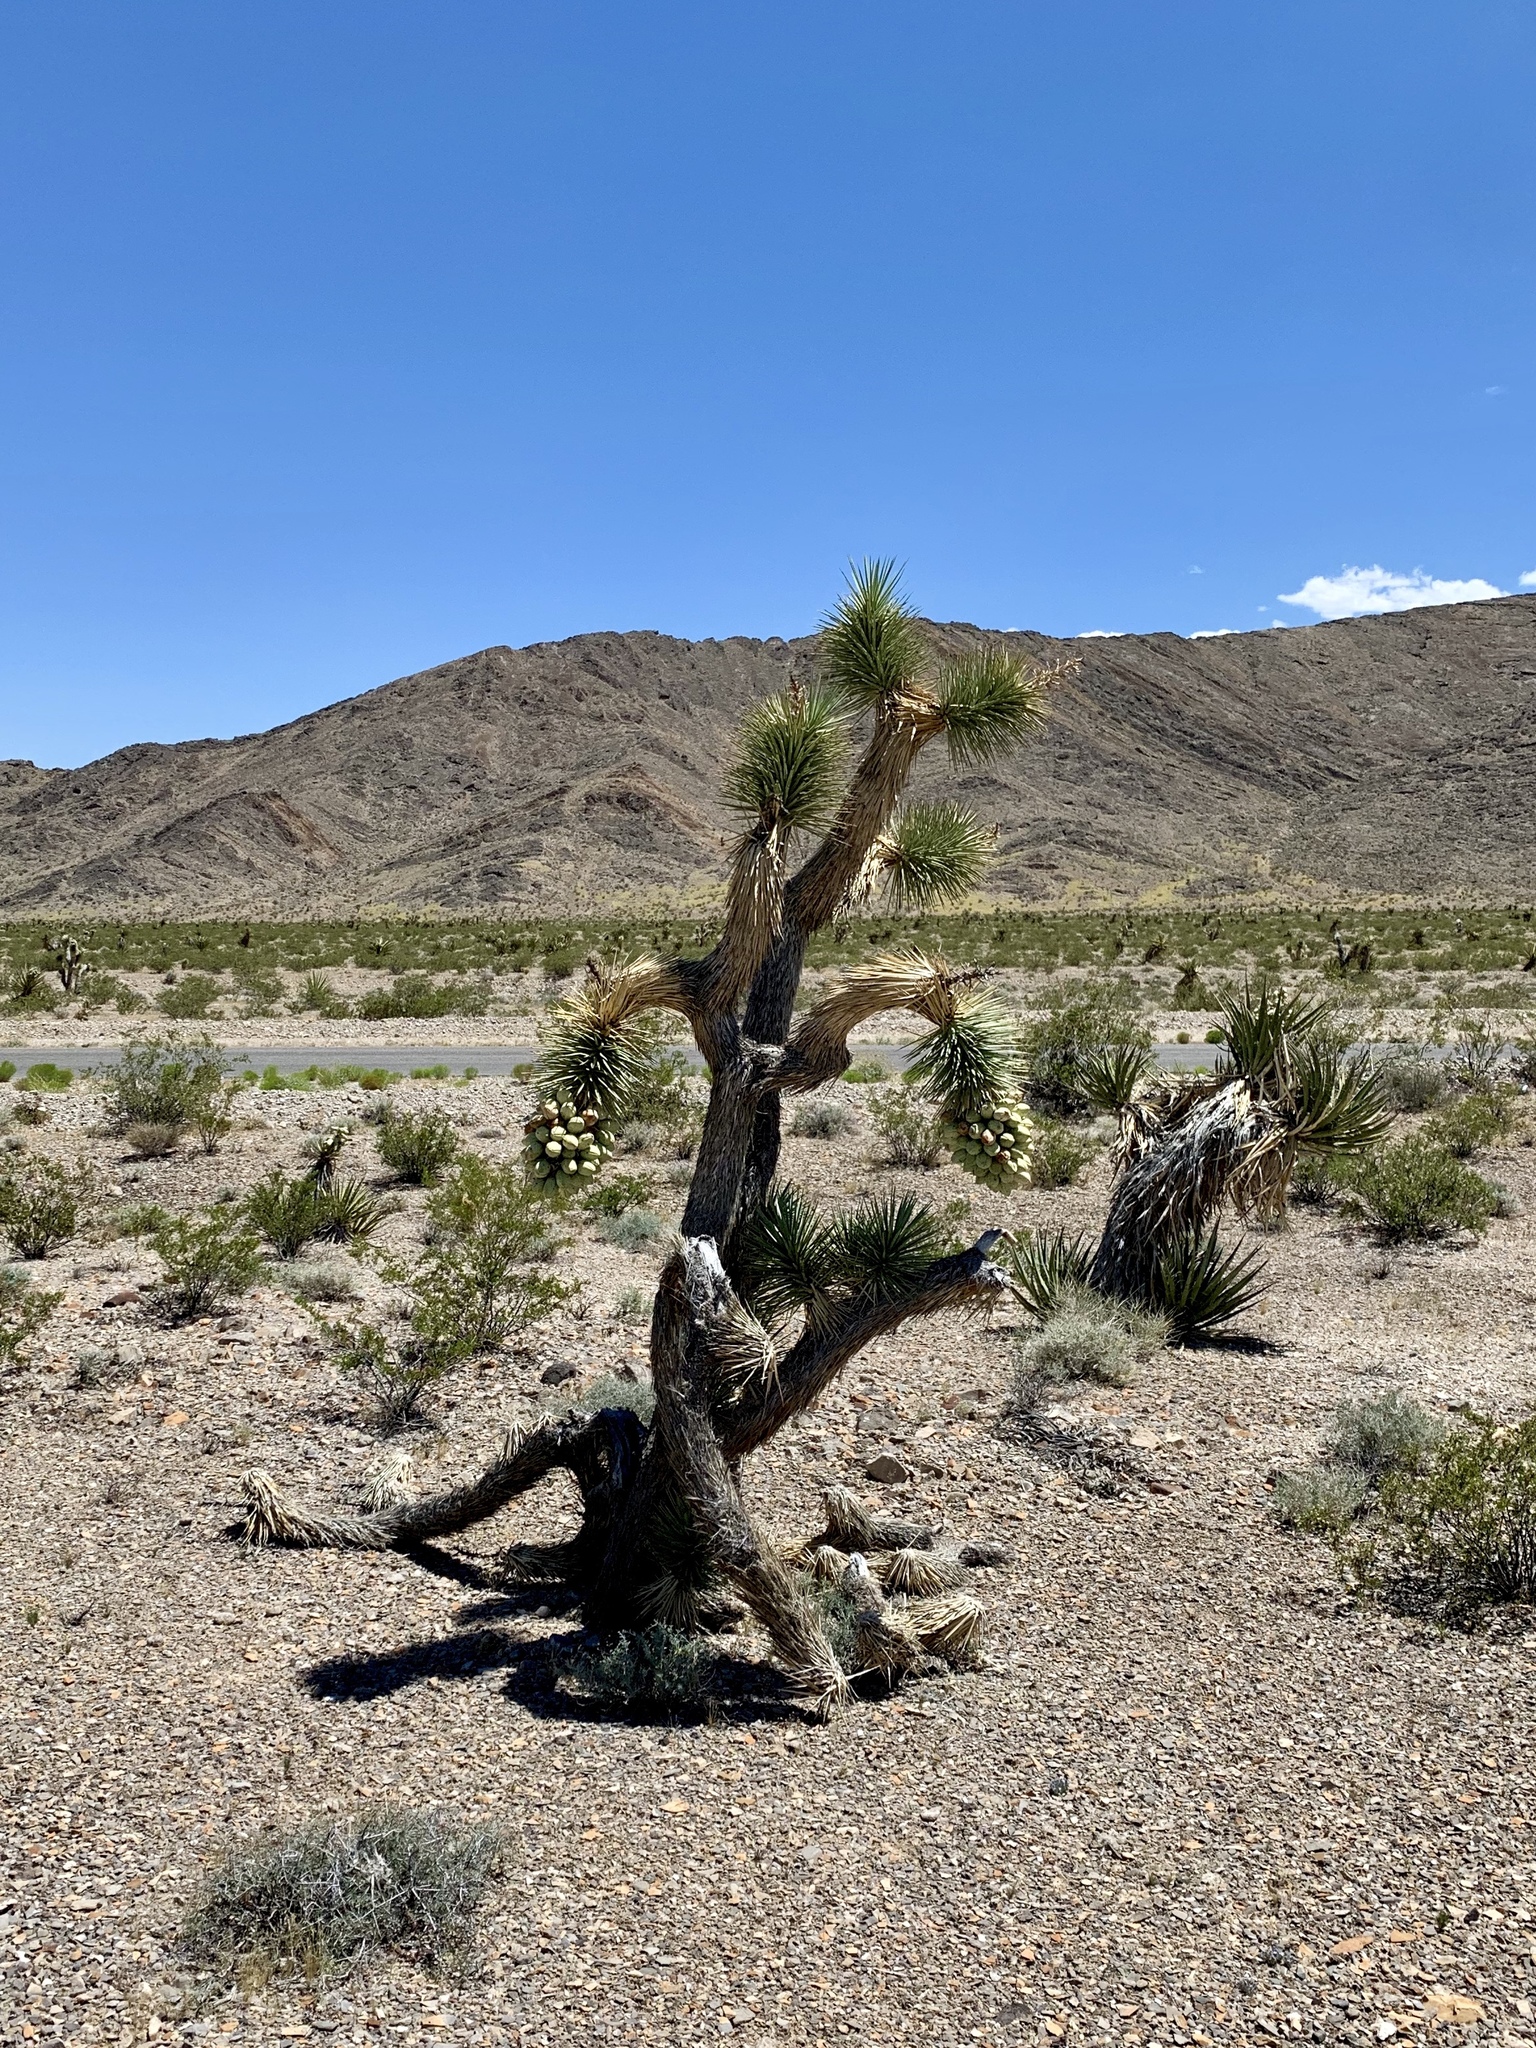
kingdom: Plantae
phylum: Tracheophyta
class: Liliopsida
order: Asparagales
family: Asparagaceae
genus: Yucca
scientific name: Yucca brevifolia
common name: Joshua tree
